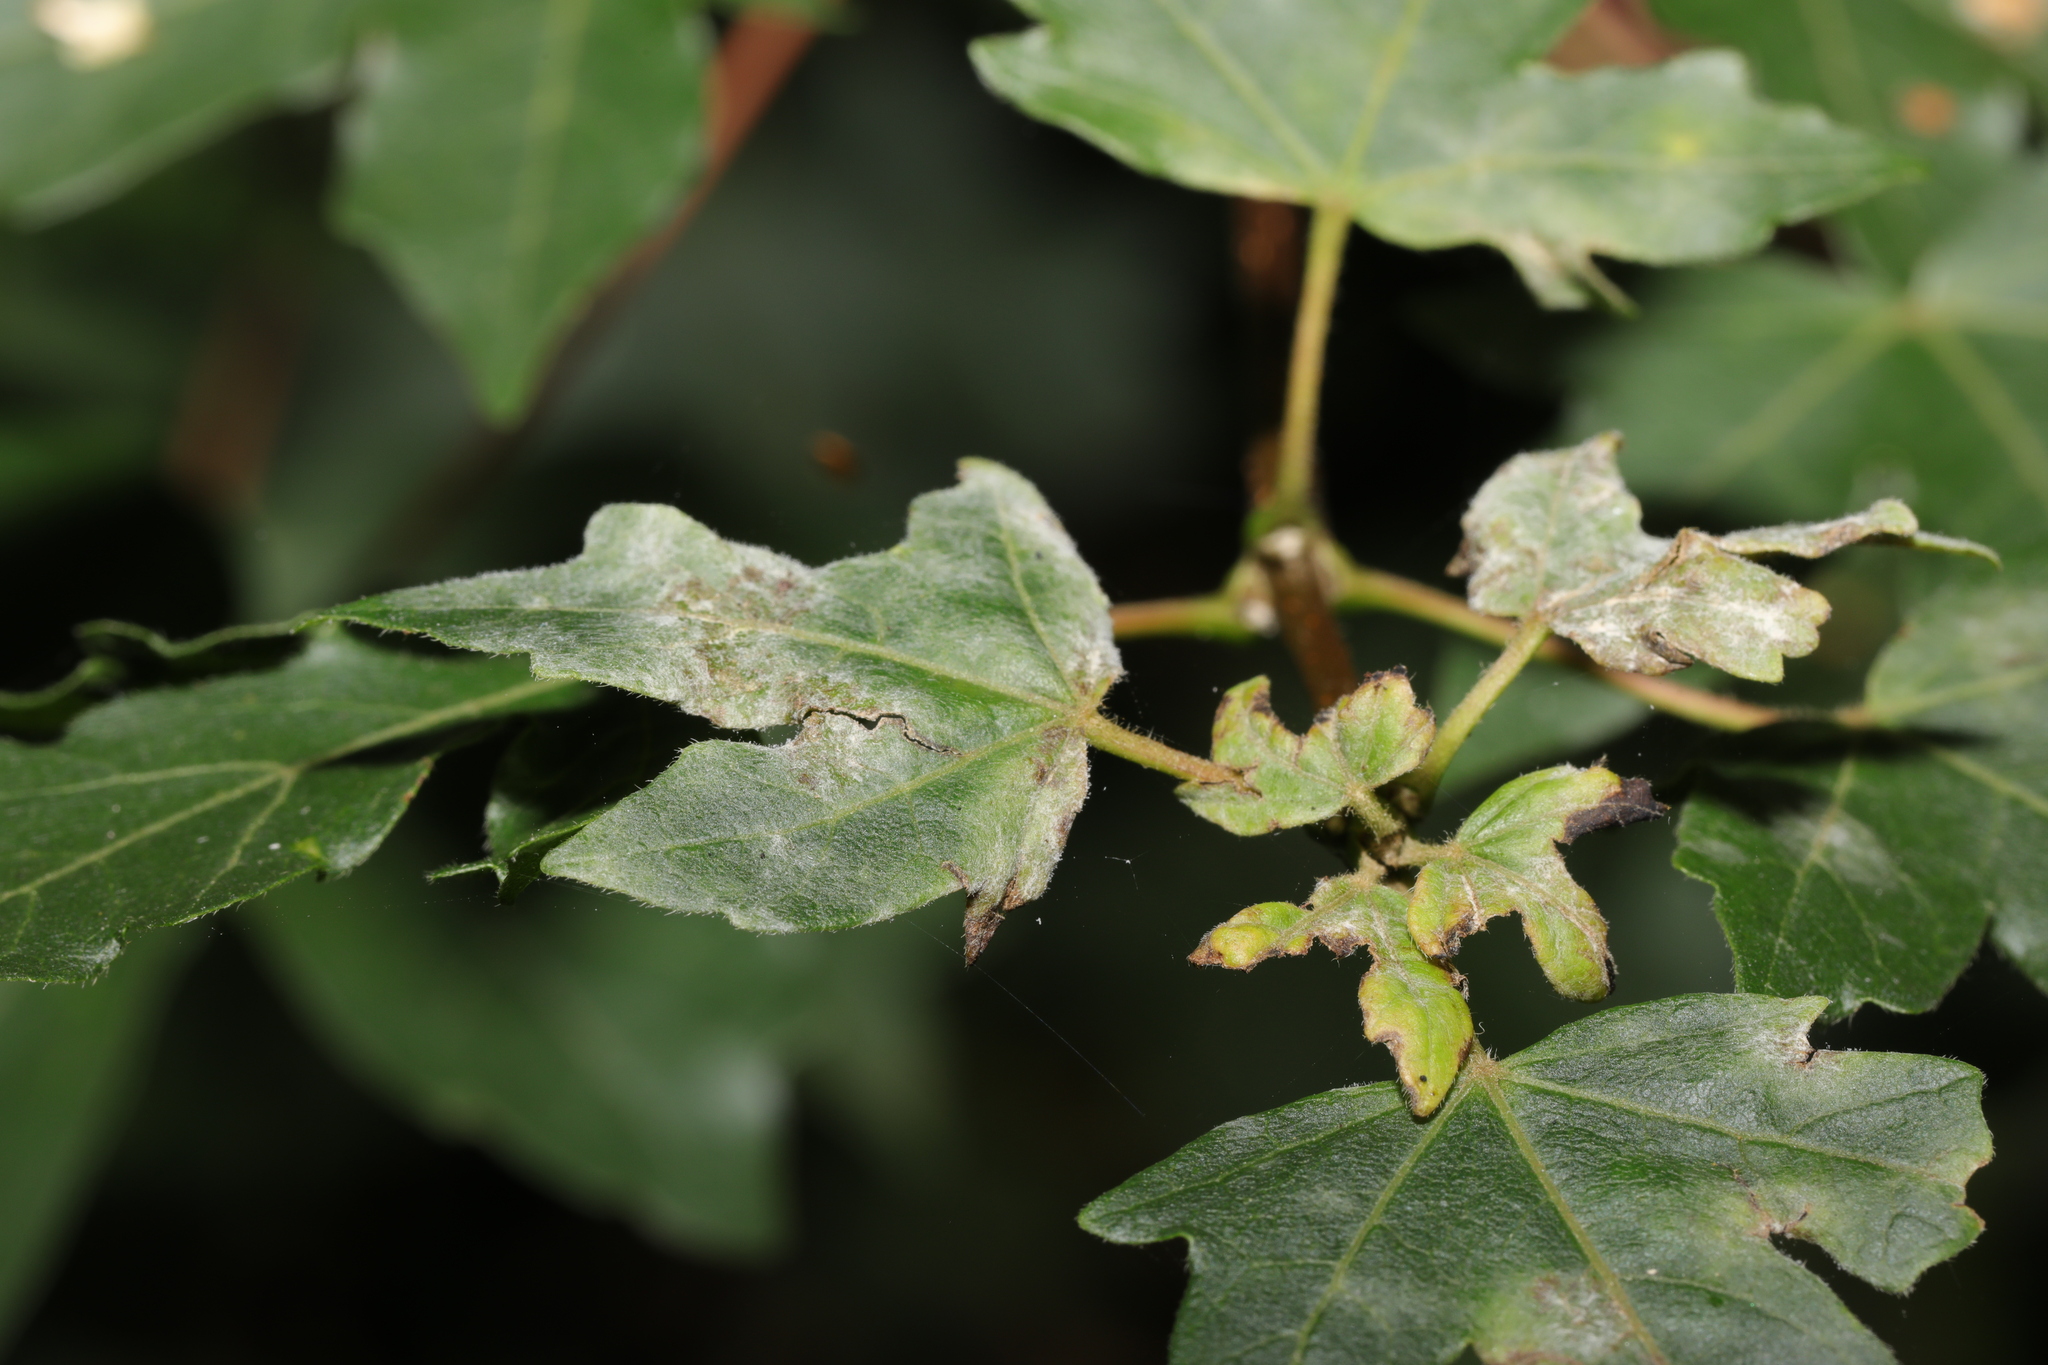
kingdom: Fungi
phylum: Ascomycota
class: Leotiomycetes
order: Helotiales
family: Erysiphaceae
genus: Sawadaea
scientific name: Sawadaea bicornis
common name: Maple mildew
